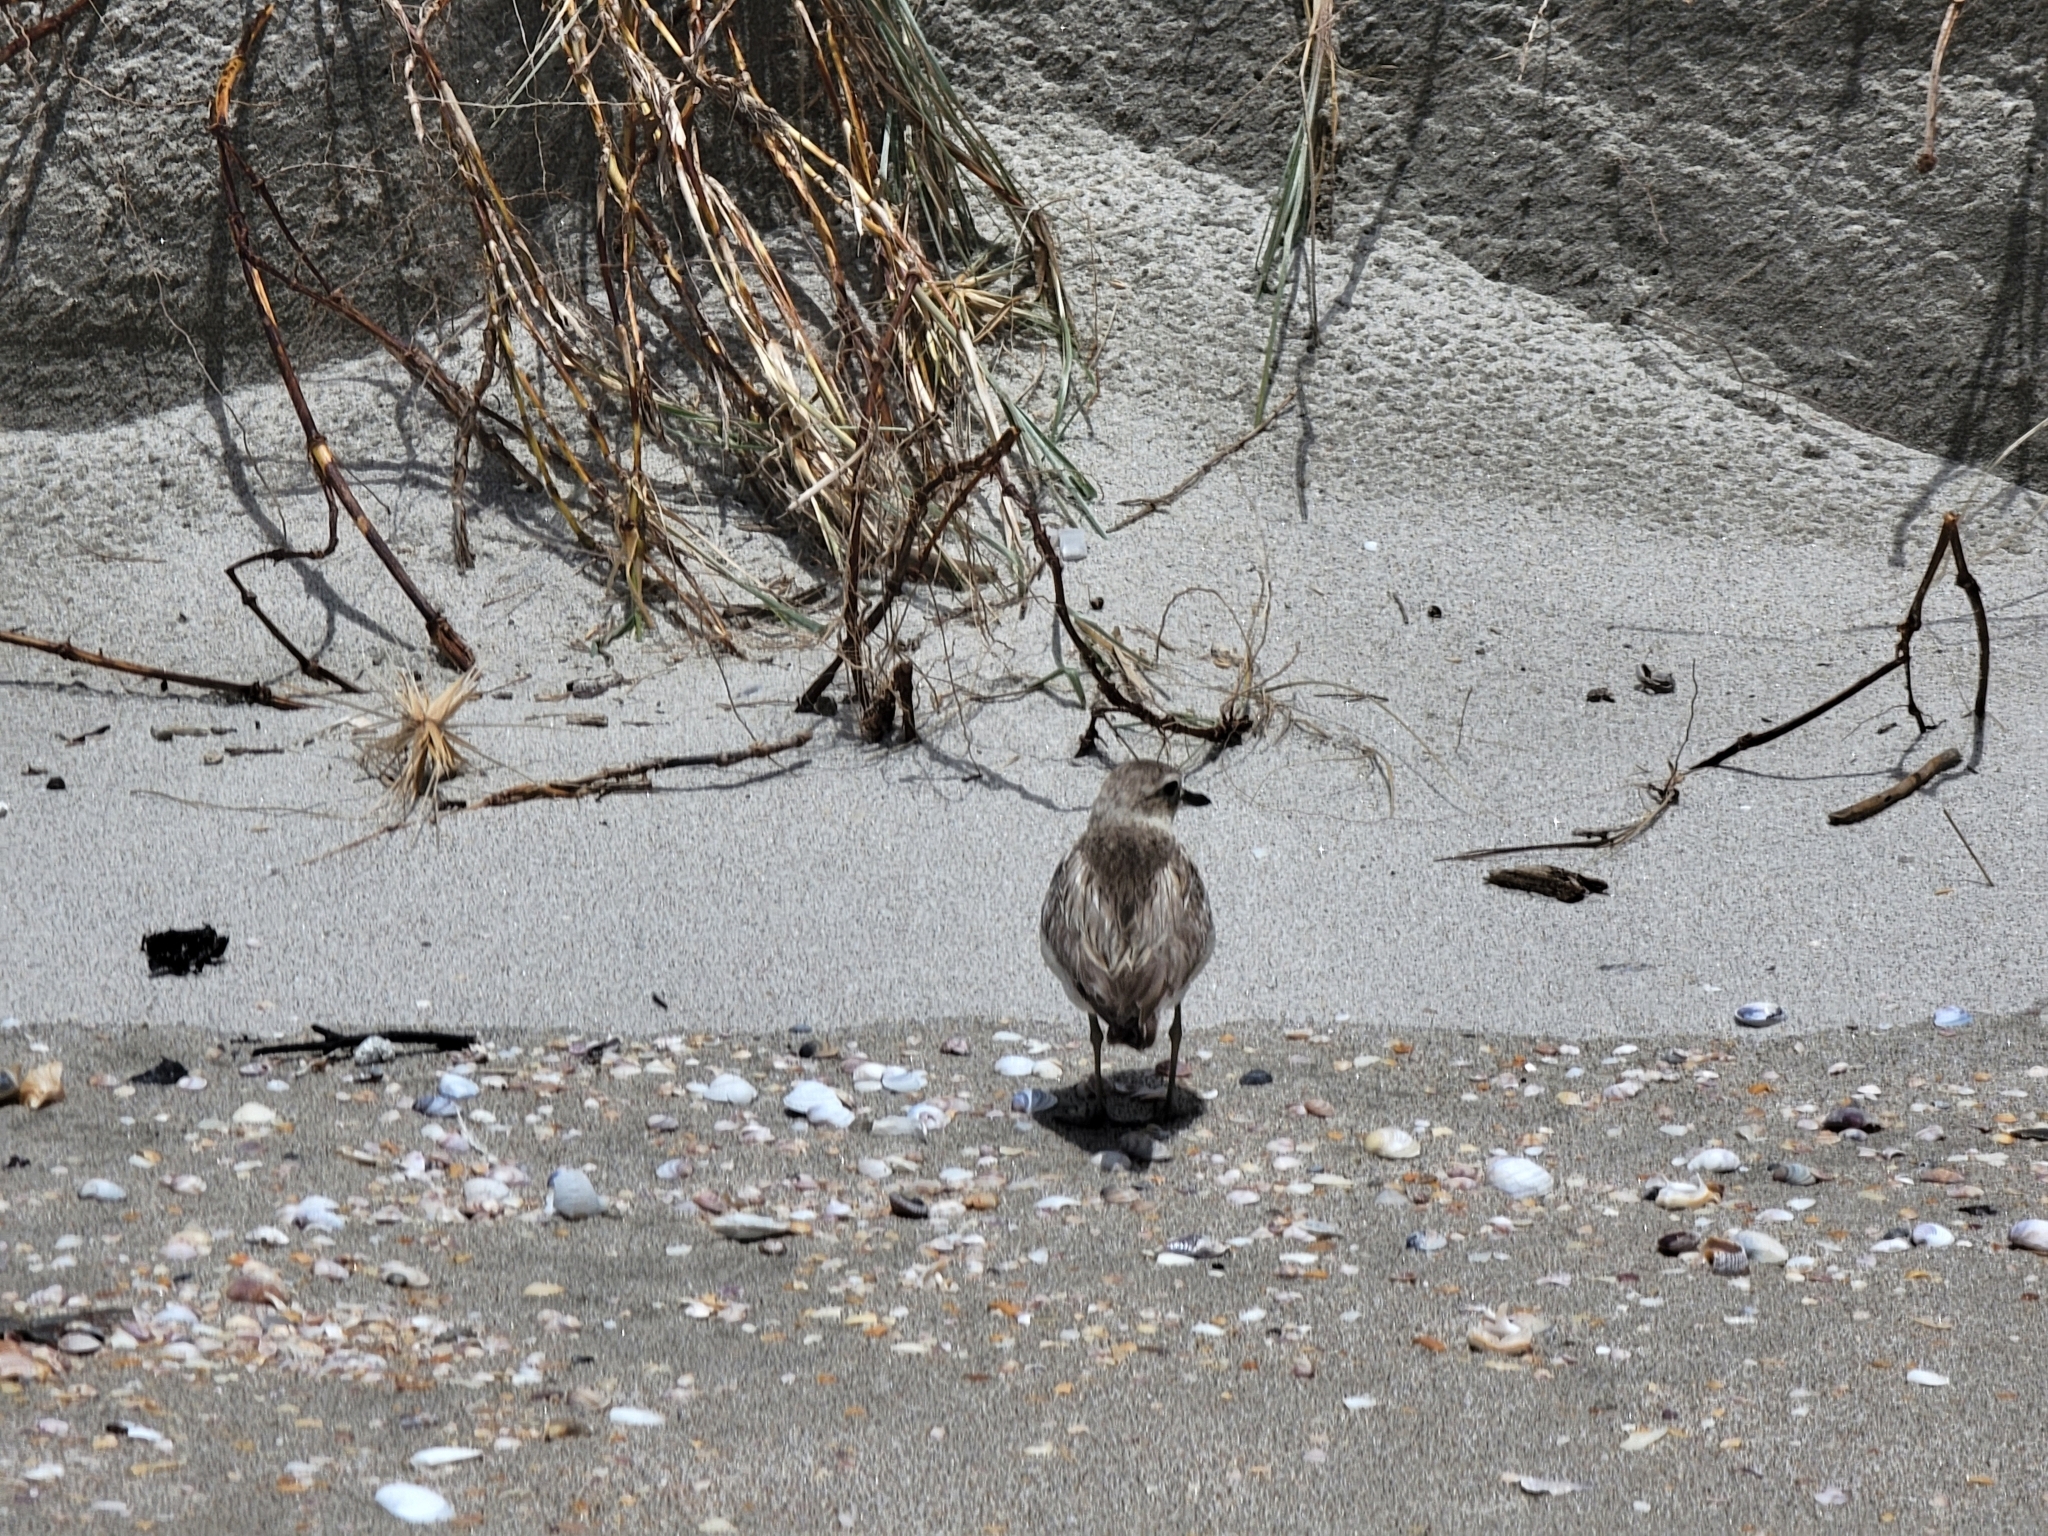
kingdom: Animalia
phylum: Chordata
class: Aves
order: Charadriiformes
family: Charadriidae
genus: Anarhynchus
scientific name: Anarhynchus
